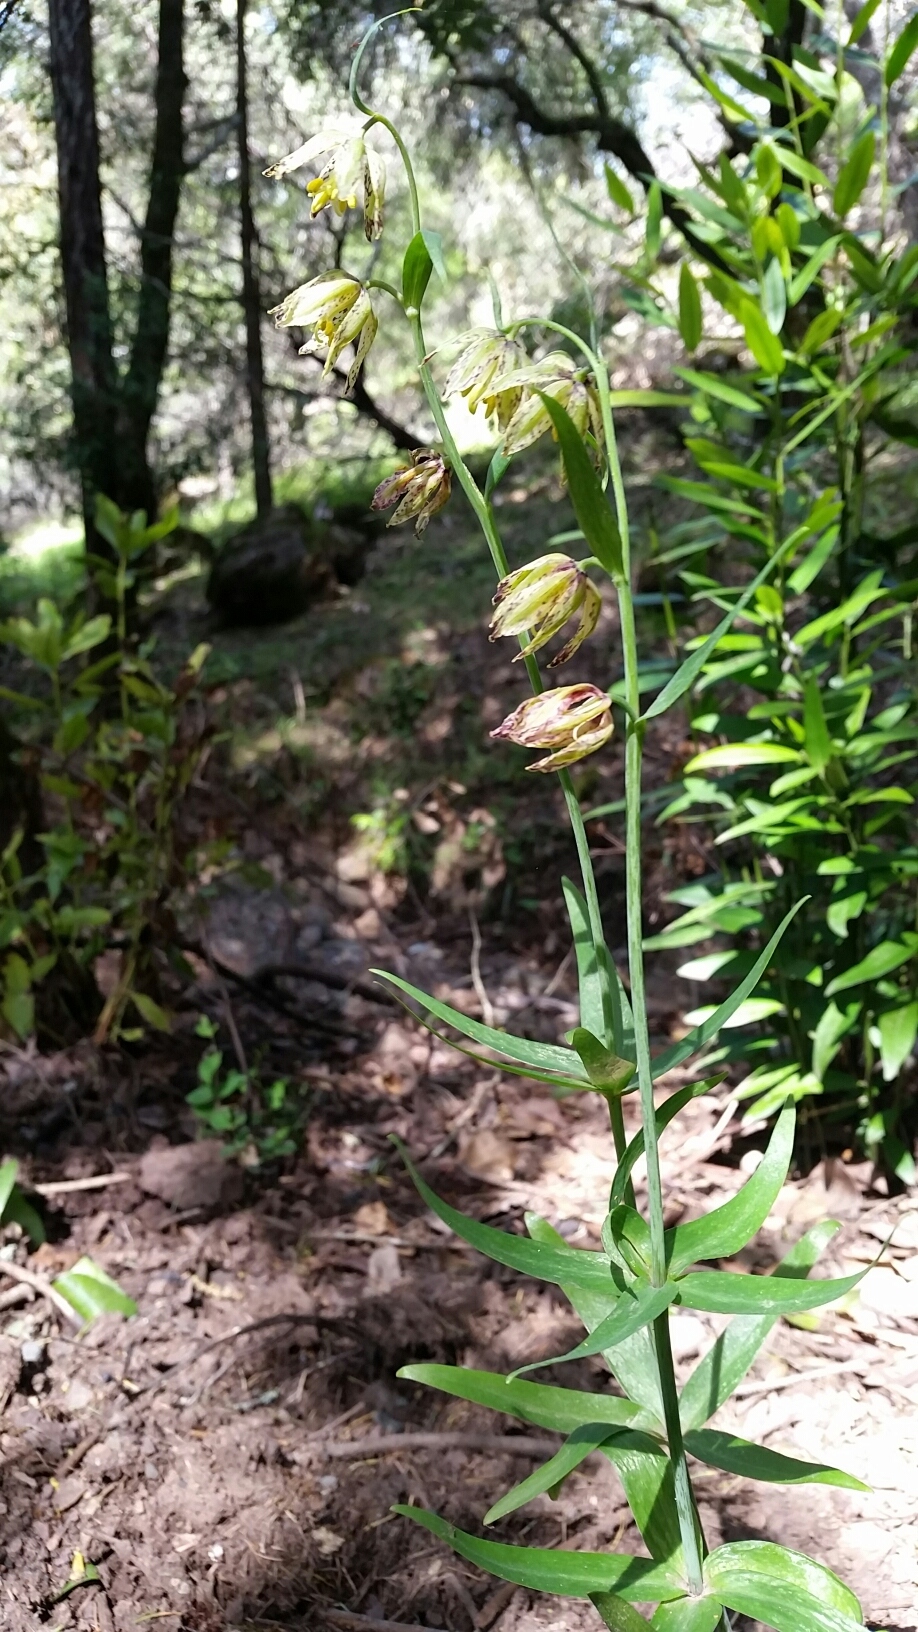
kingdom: Plantae
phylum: Tracheophyta
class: Liliopsida
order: Liliales
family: Liliaceae
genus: Fritillaria
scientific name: Fritillaria affinis
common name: Ojai fritillary
